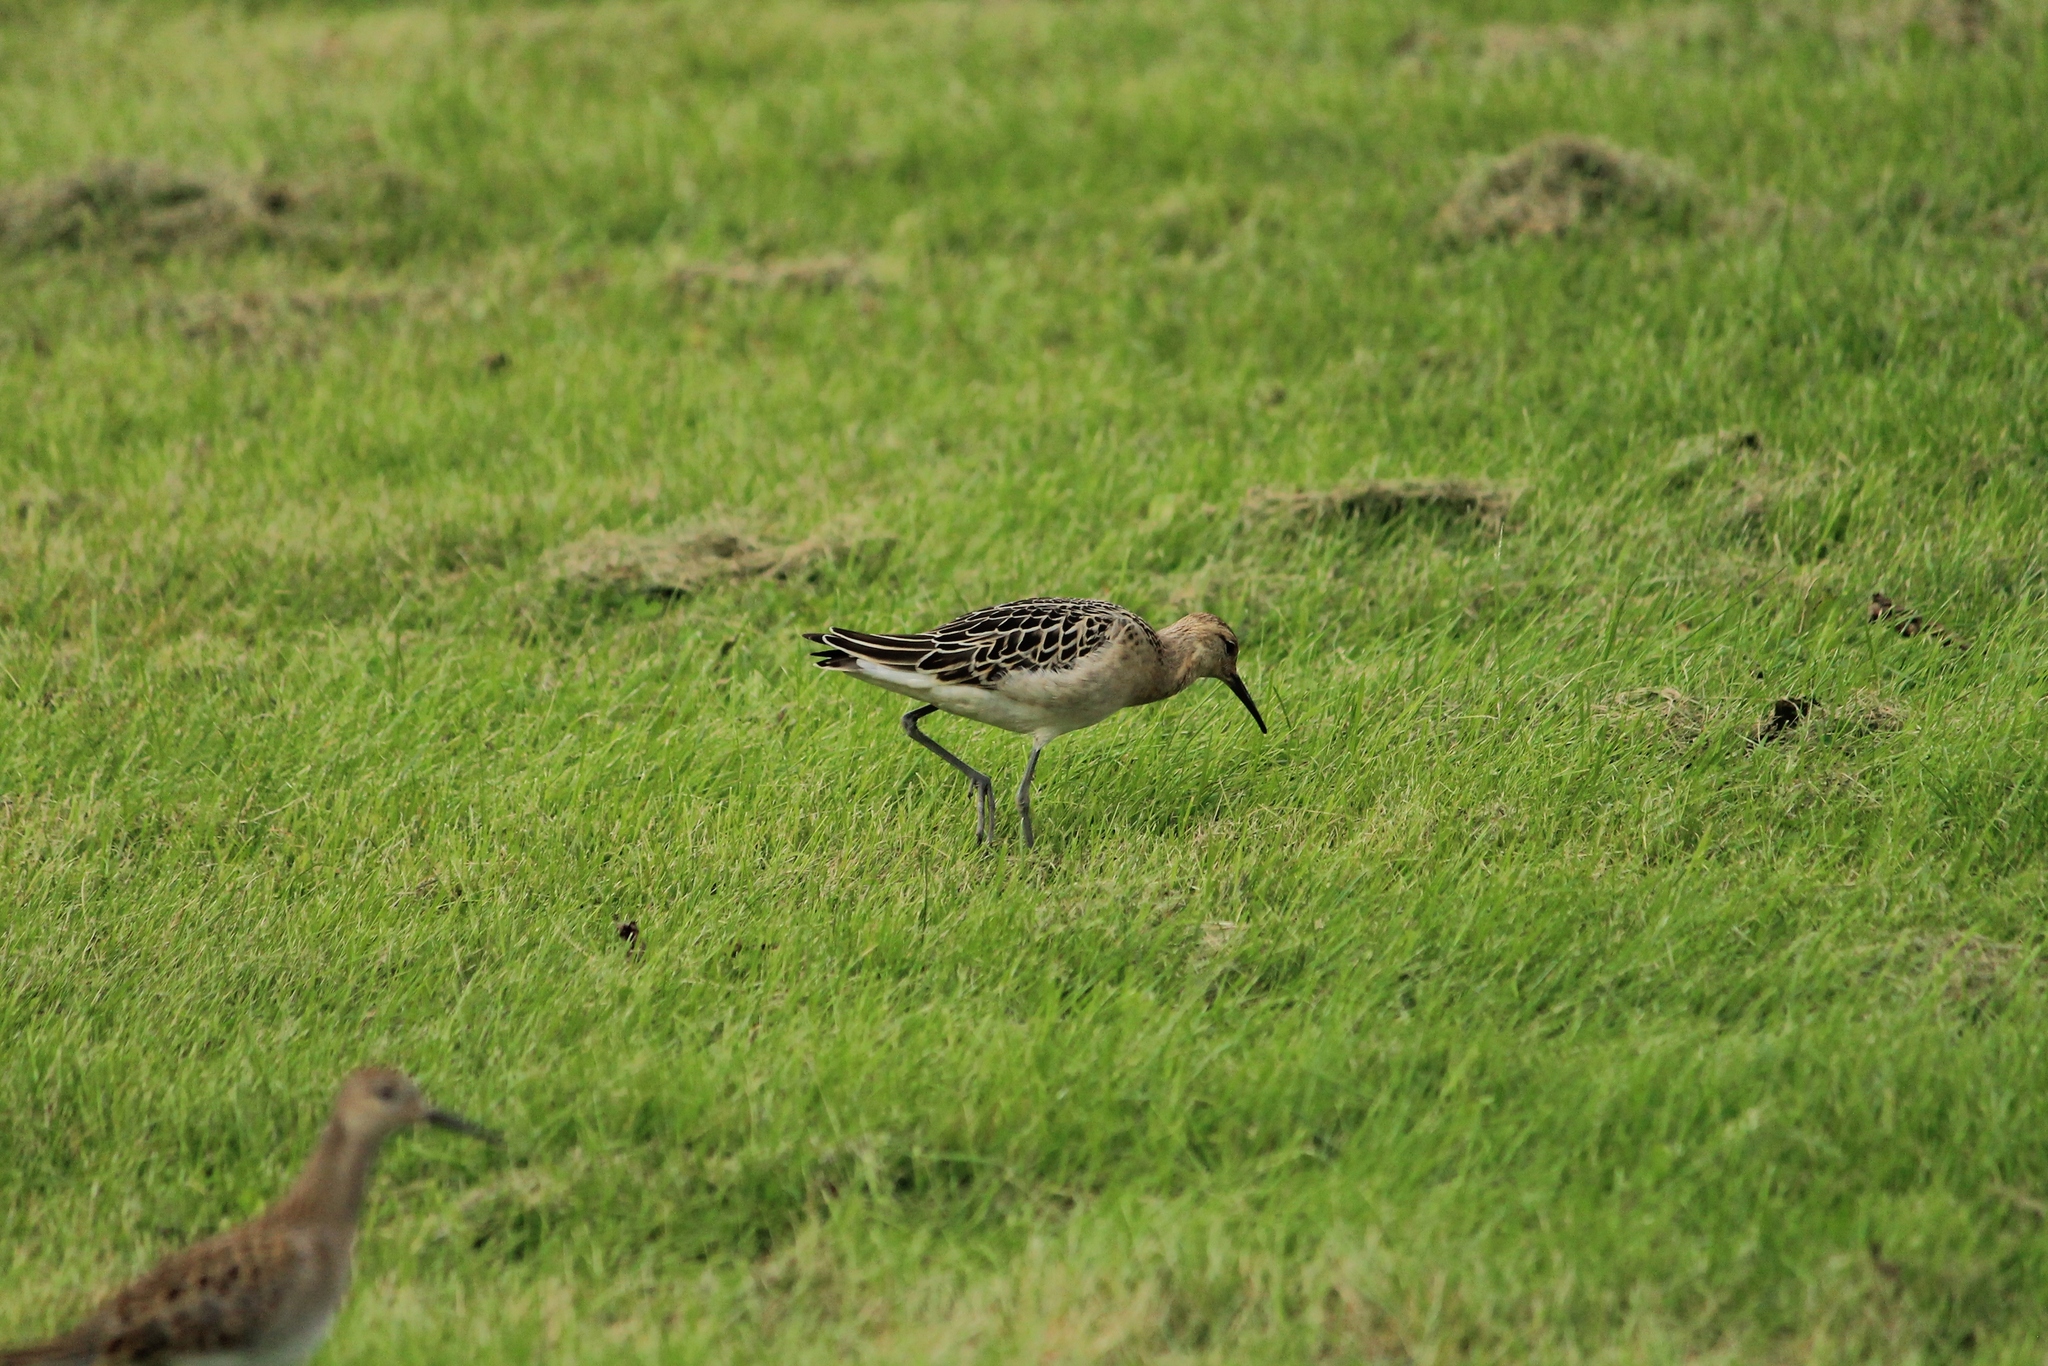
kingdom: Animalia
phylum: Chordata
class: Aves
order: Charadriiformes
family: Scolopacidae
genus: Calidris
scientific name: Calidris pugnax
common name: Ruff
